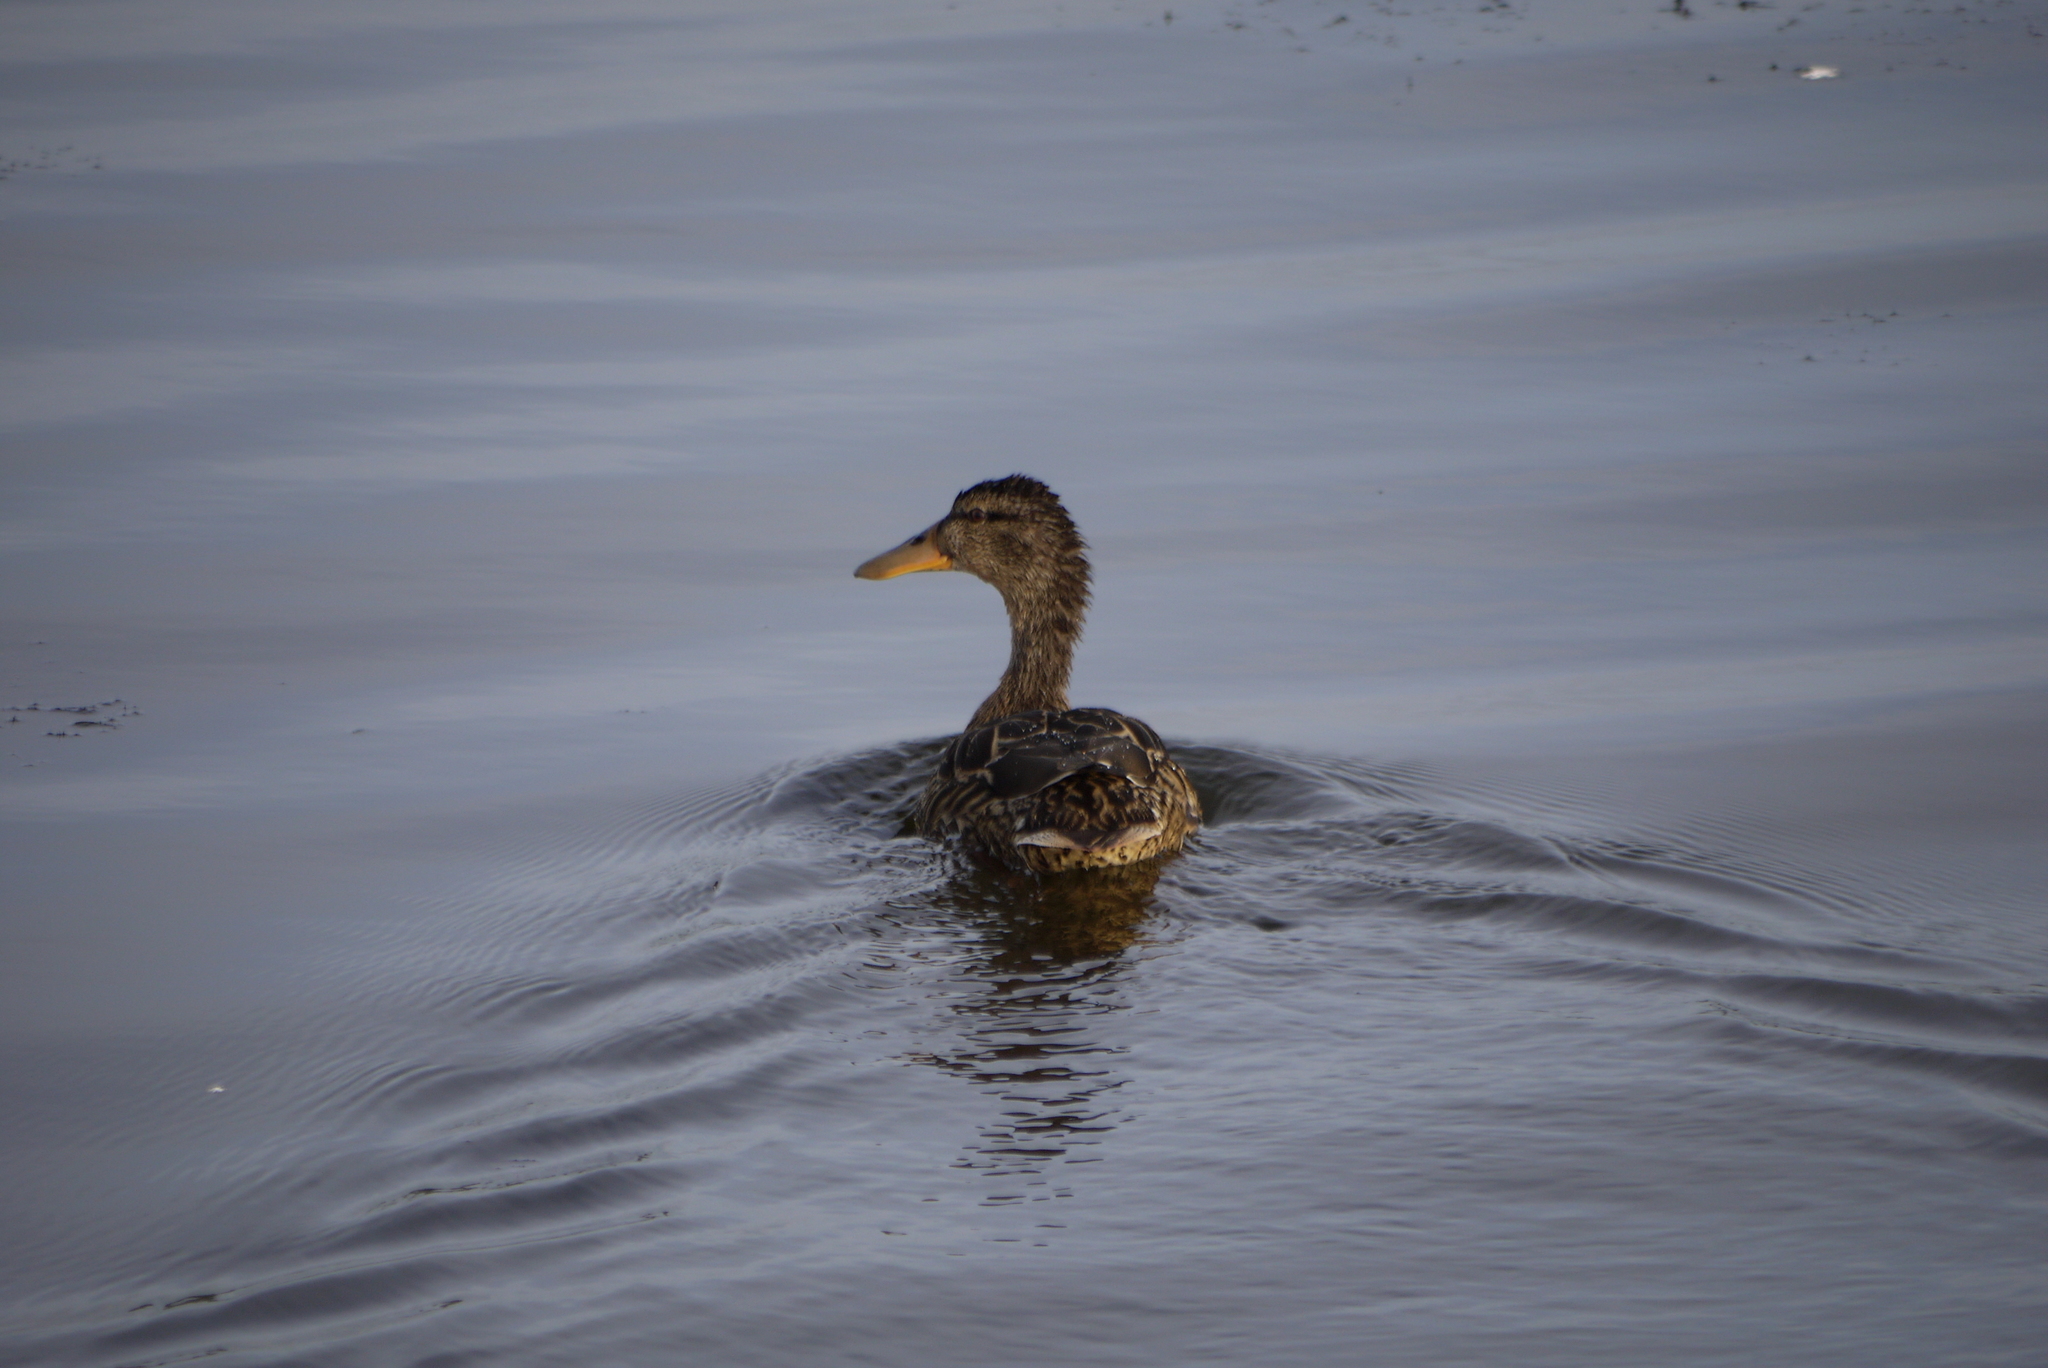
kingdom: Animalia
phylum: Chordata
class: Aves
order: Anseriformes
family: Anatidae
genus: Anas
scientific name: Anas platyrhynchos
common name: Mallard
